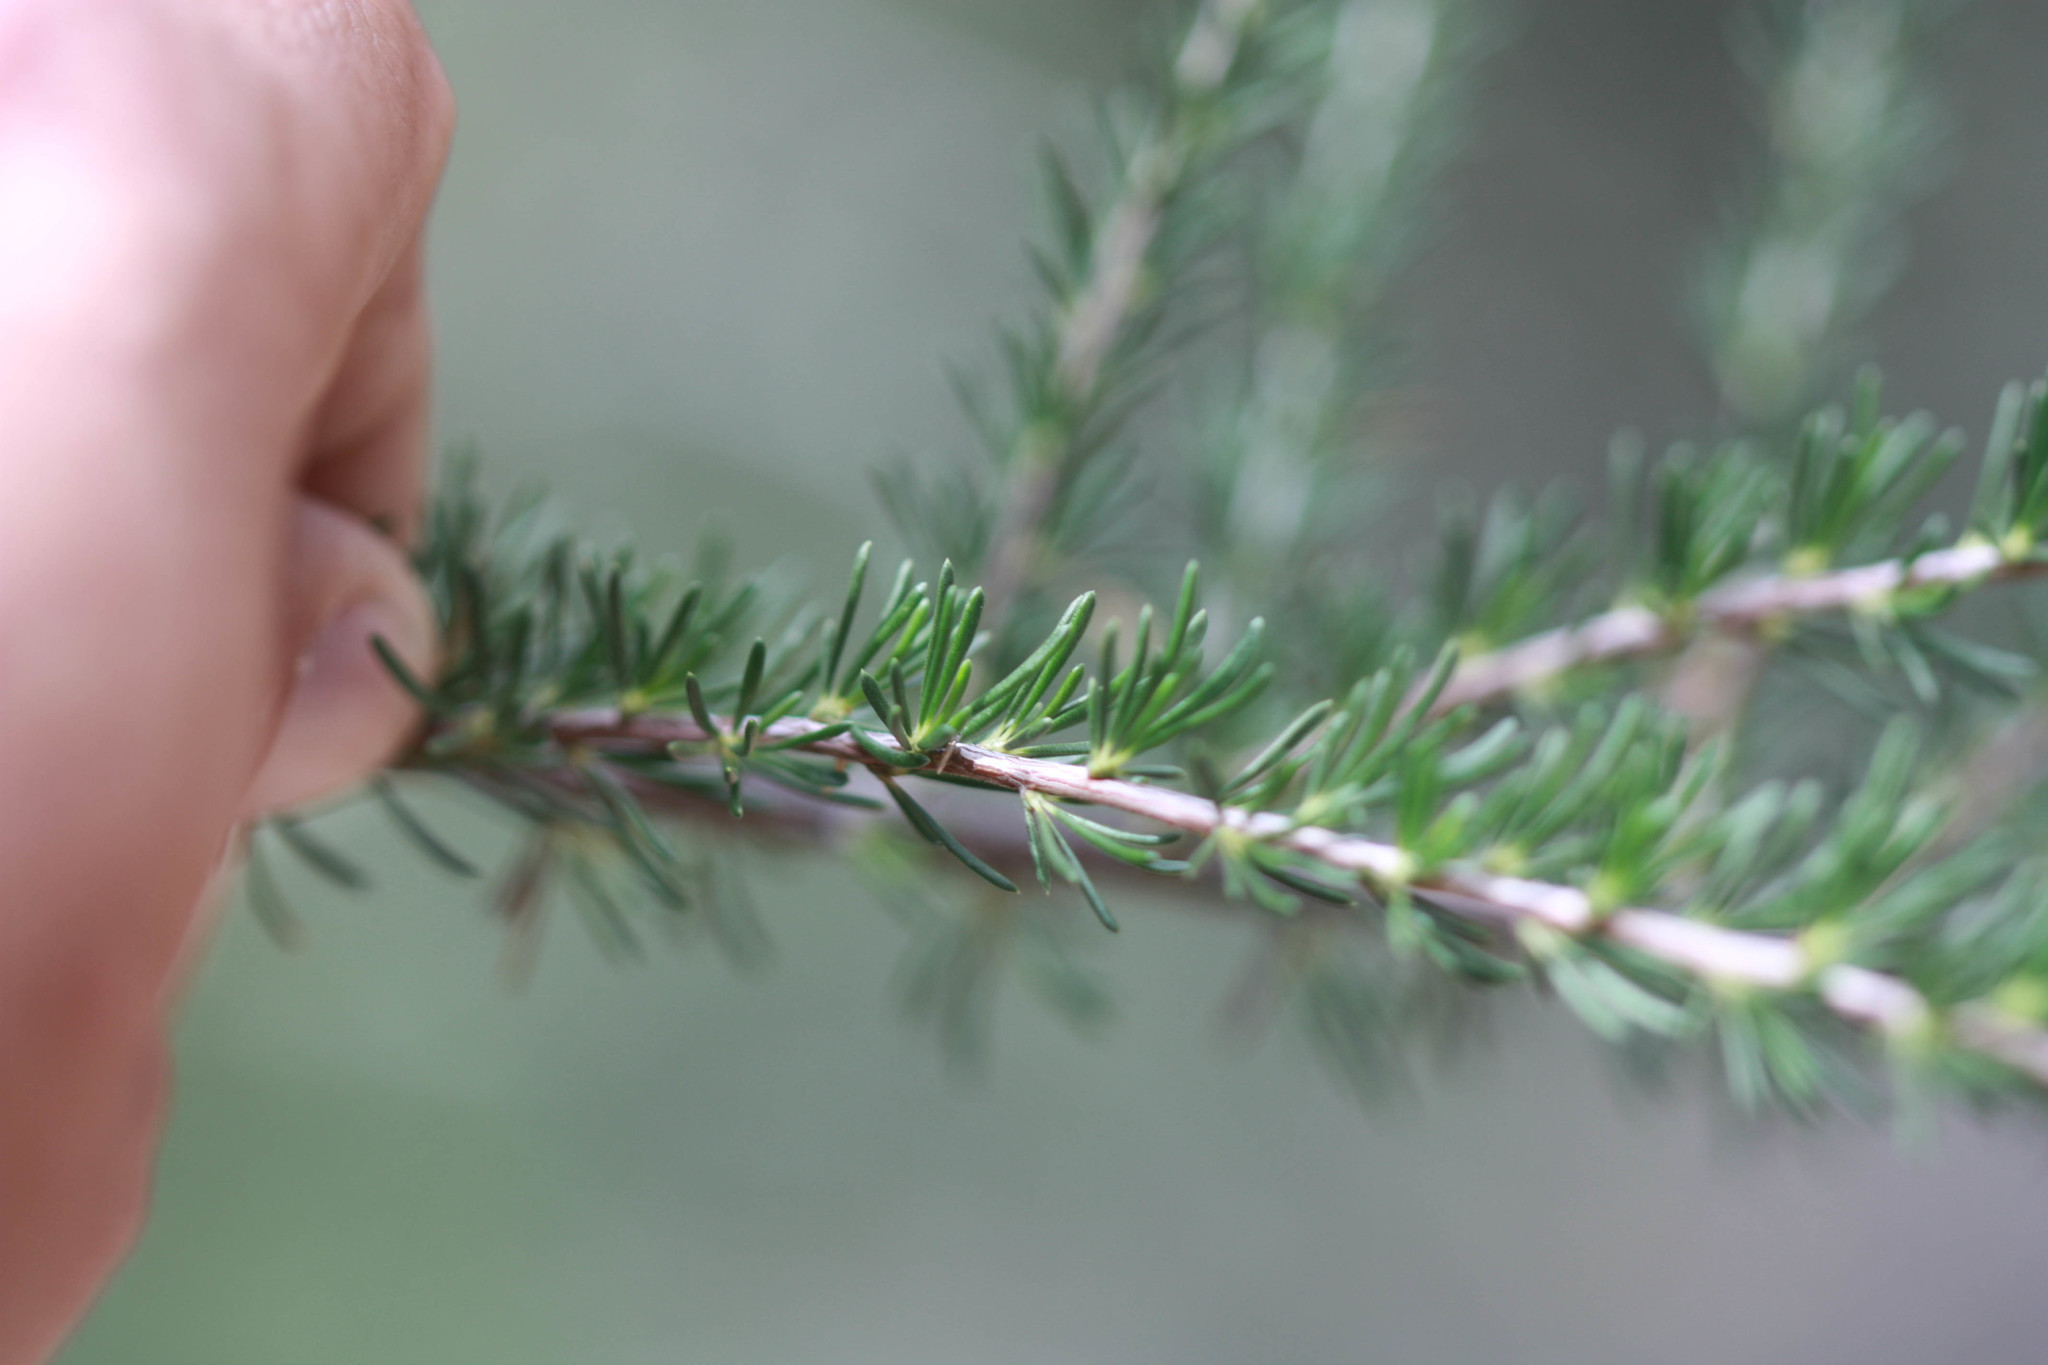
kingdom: Plantae
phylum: Tracheophyta
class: Magnoliopsida
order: Rosales
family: Rosaceae
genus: Adenostoma
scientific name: Adenostoma fasciculatum
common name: Chamise
